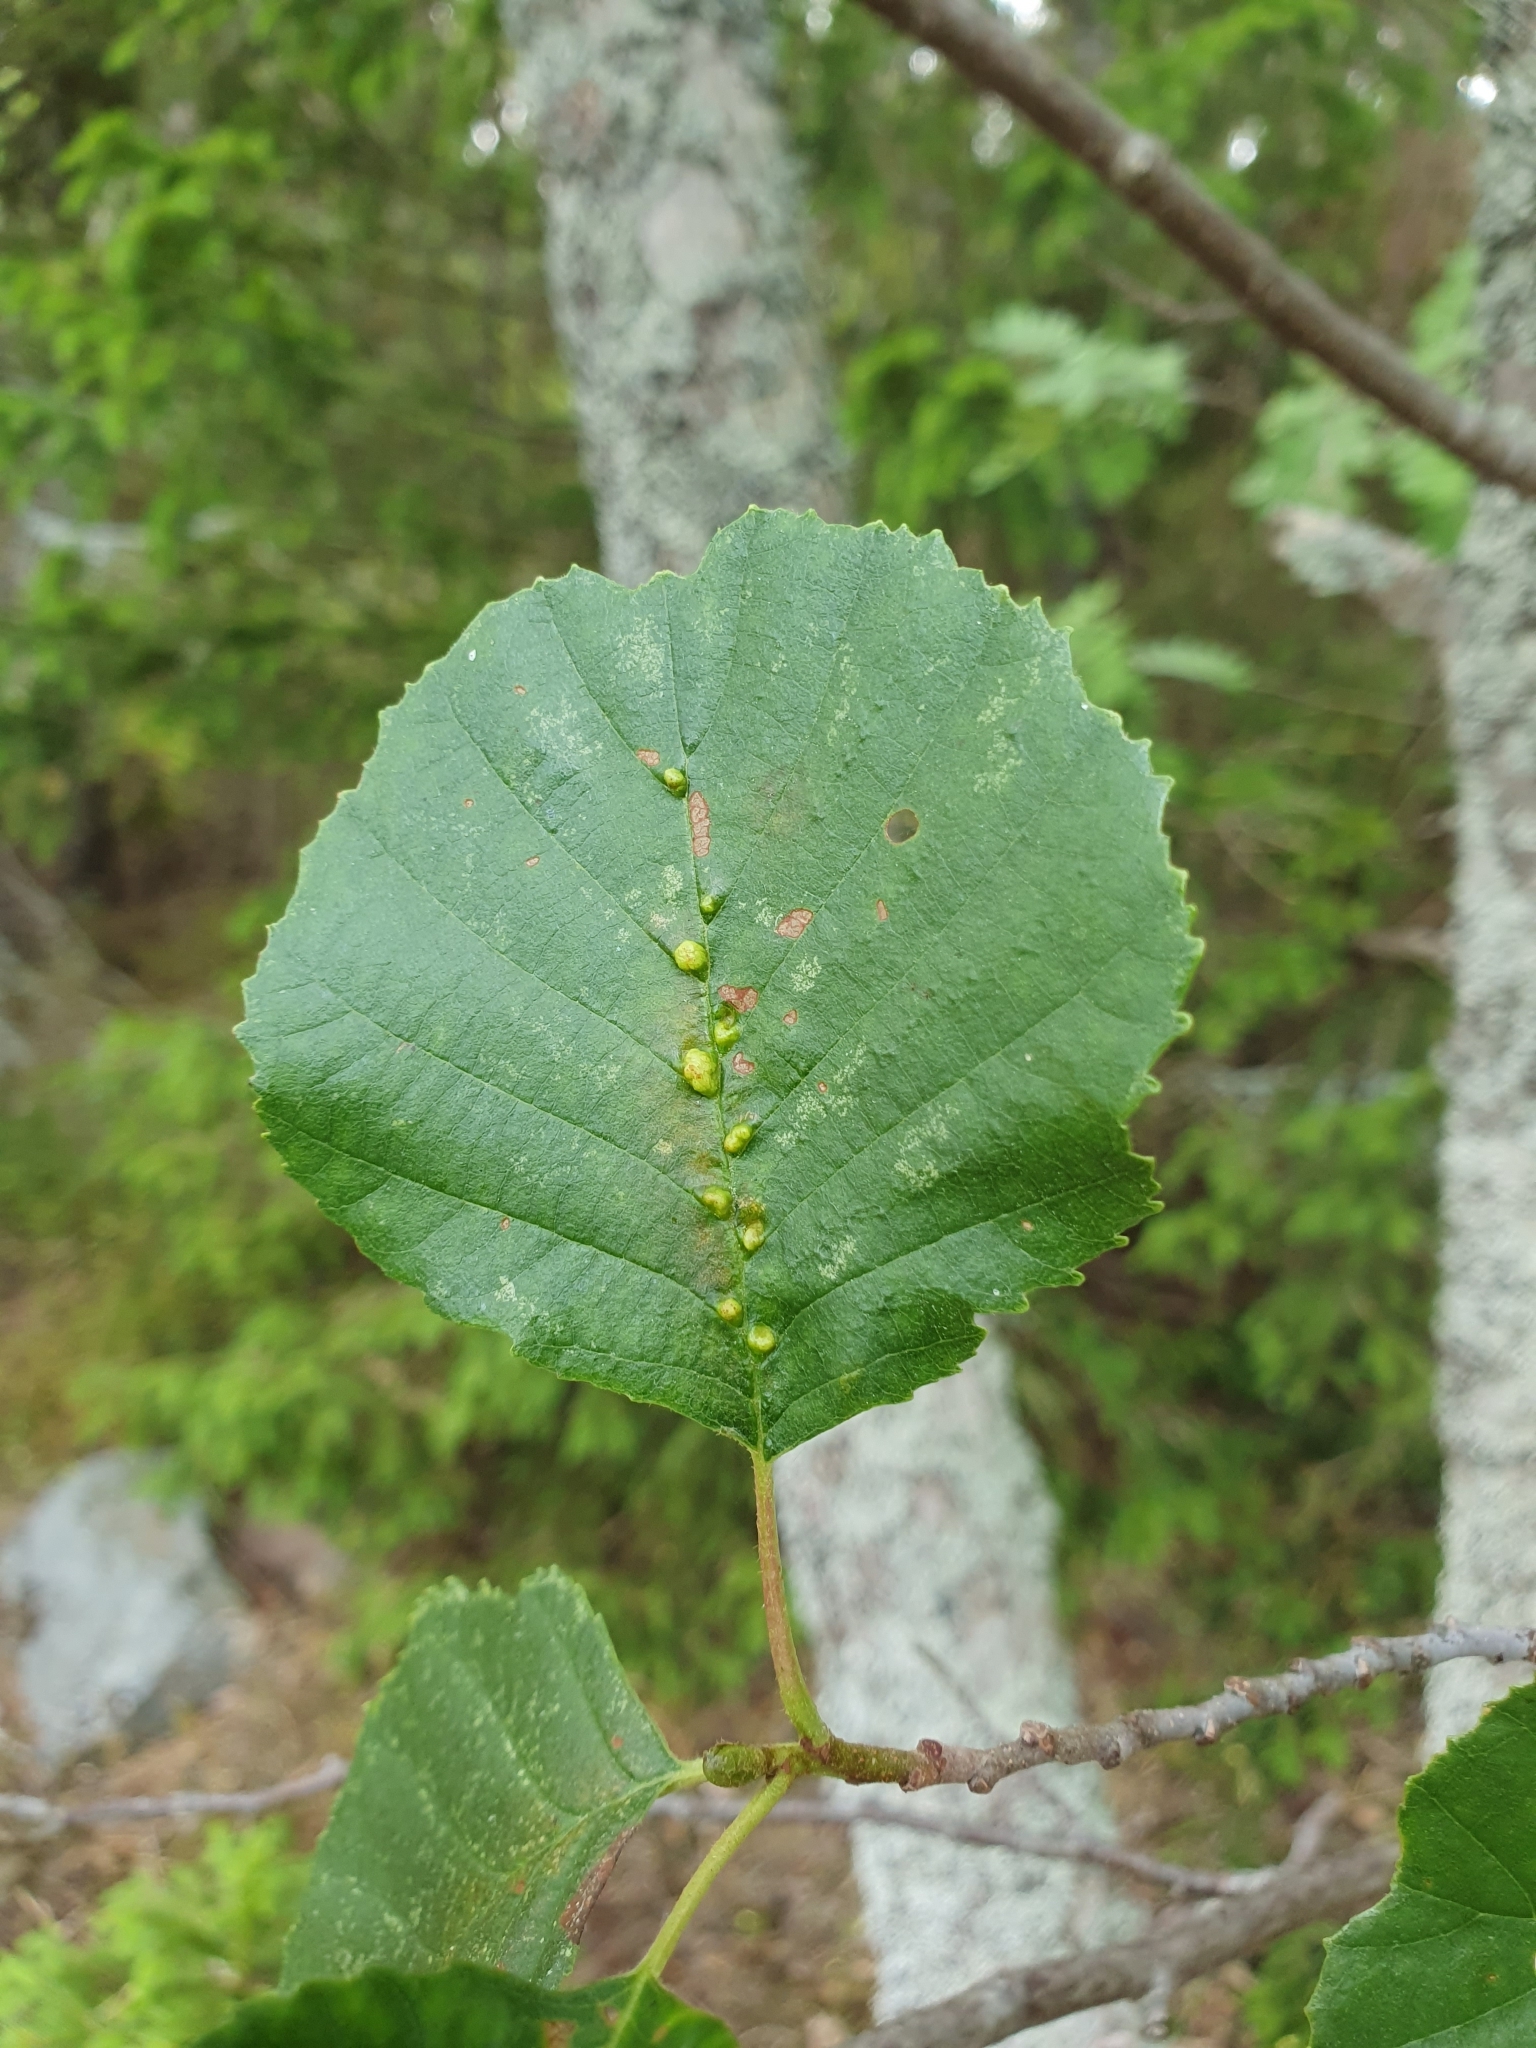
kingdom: Animalia
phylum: Arthropoda
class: Arachnida
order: Trombidiformes
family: Eriophyidae
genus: Eriophyes
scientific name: Eriophyes inangulis
